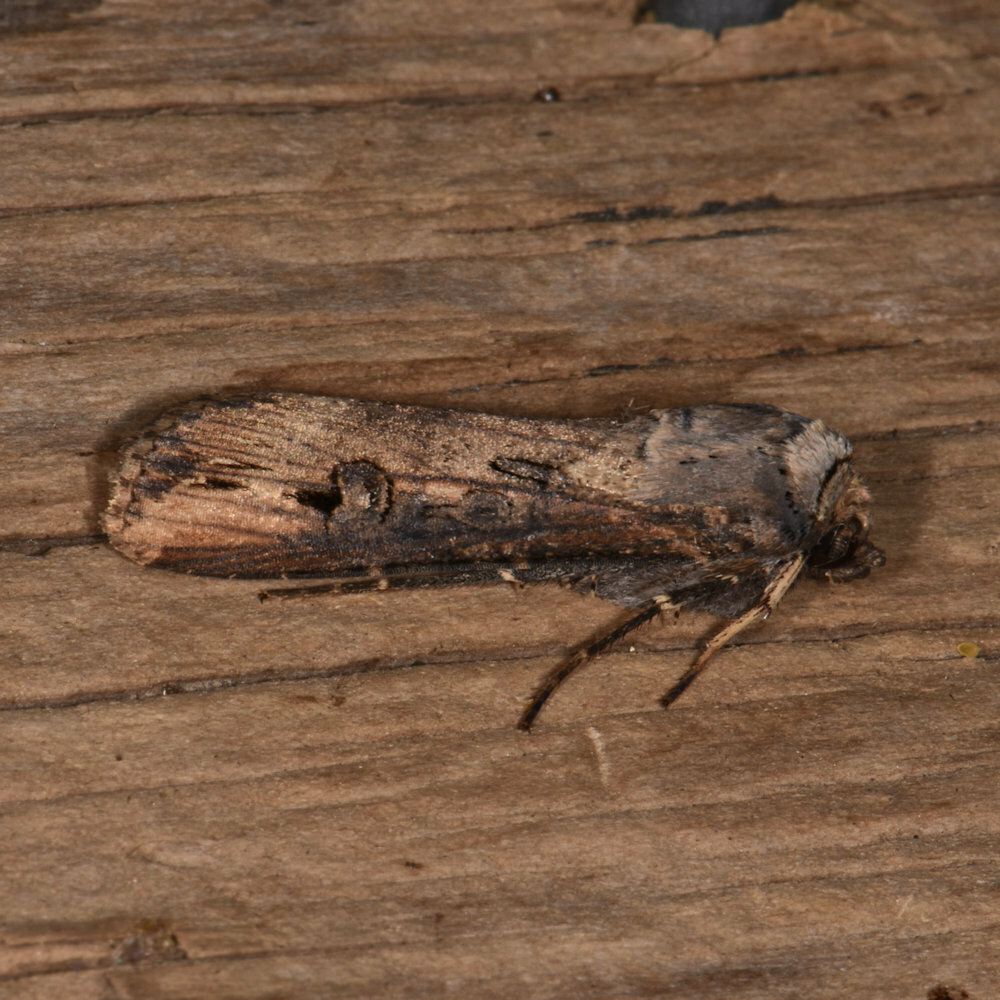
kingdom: Animalia
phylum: Arthropoda
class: Insecta
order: Lepidoptera
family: Noctuidae
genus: Agrotis
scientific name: Agrotis ipsilon
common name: Dark sword-grass
